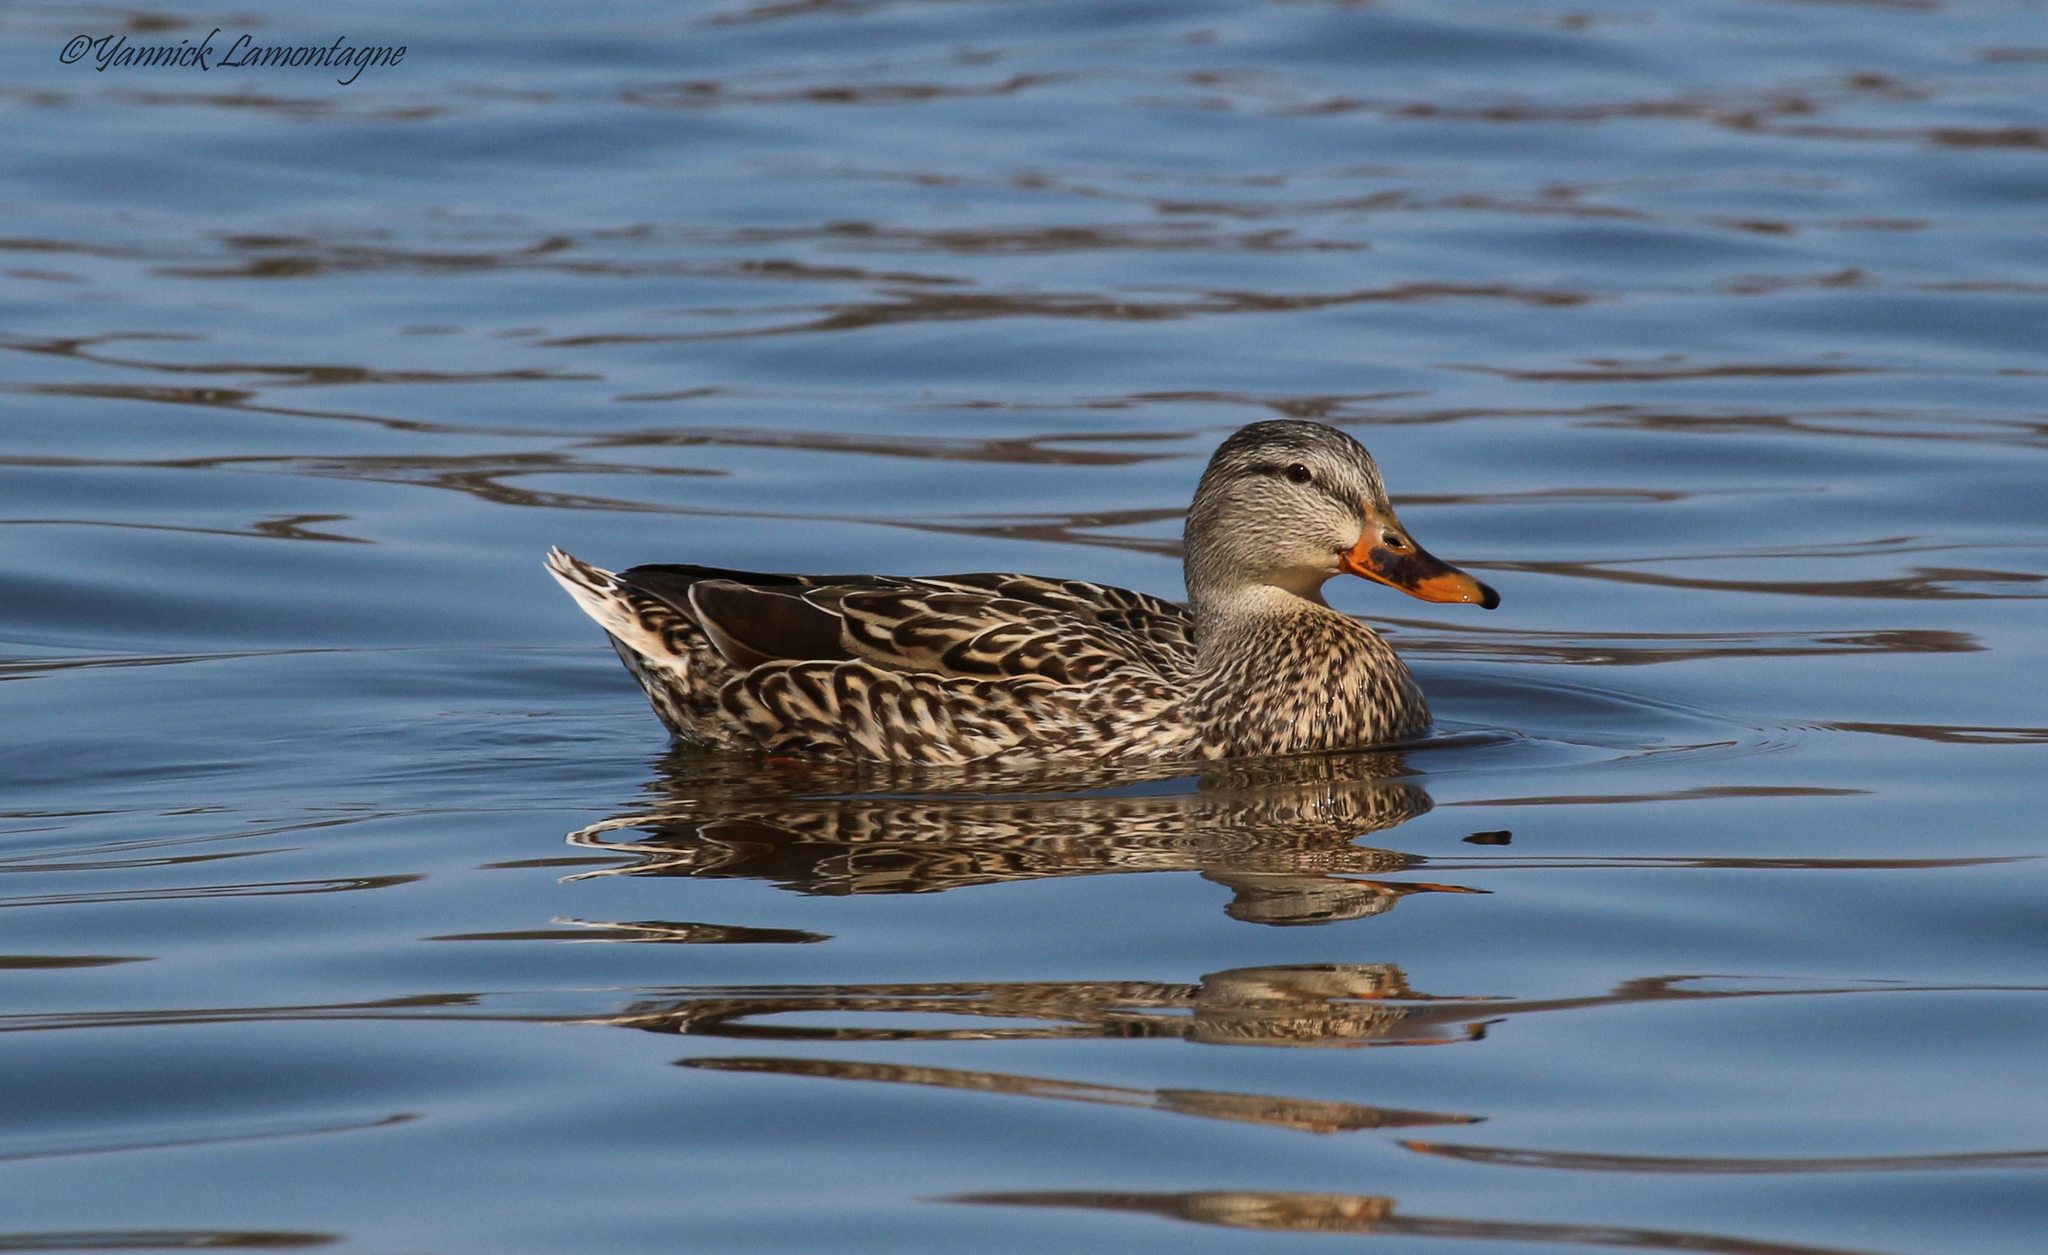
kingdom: Animalia
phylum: Chordata
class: Aves
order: Anseriformes
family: Anatidae
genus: Anas
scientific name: Anas platyrhynchos
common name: Mallard
